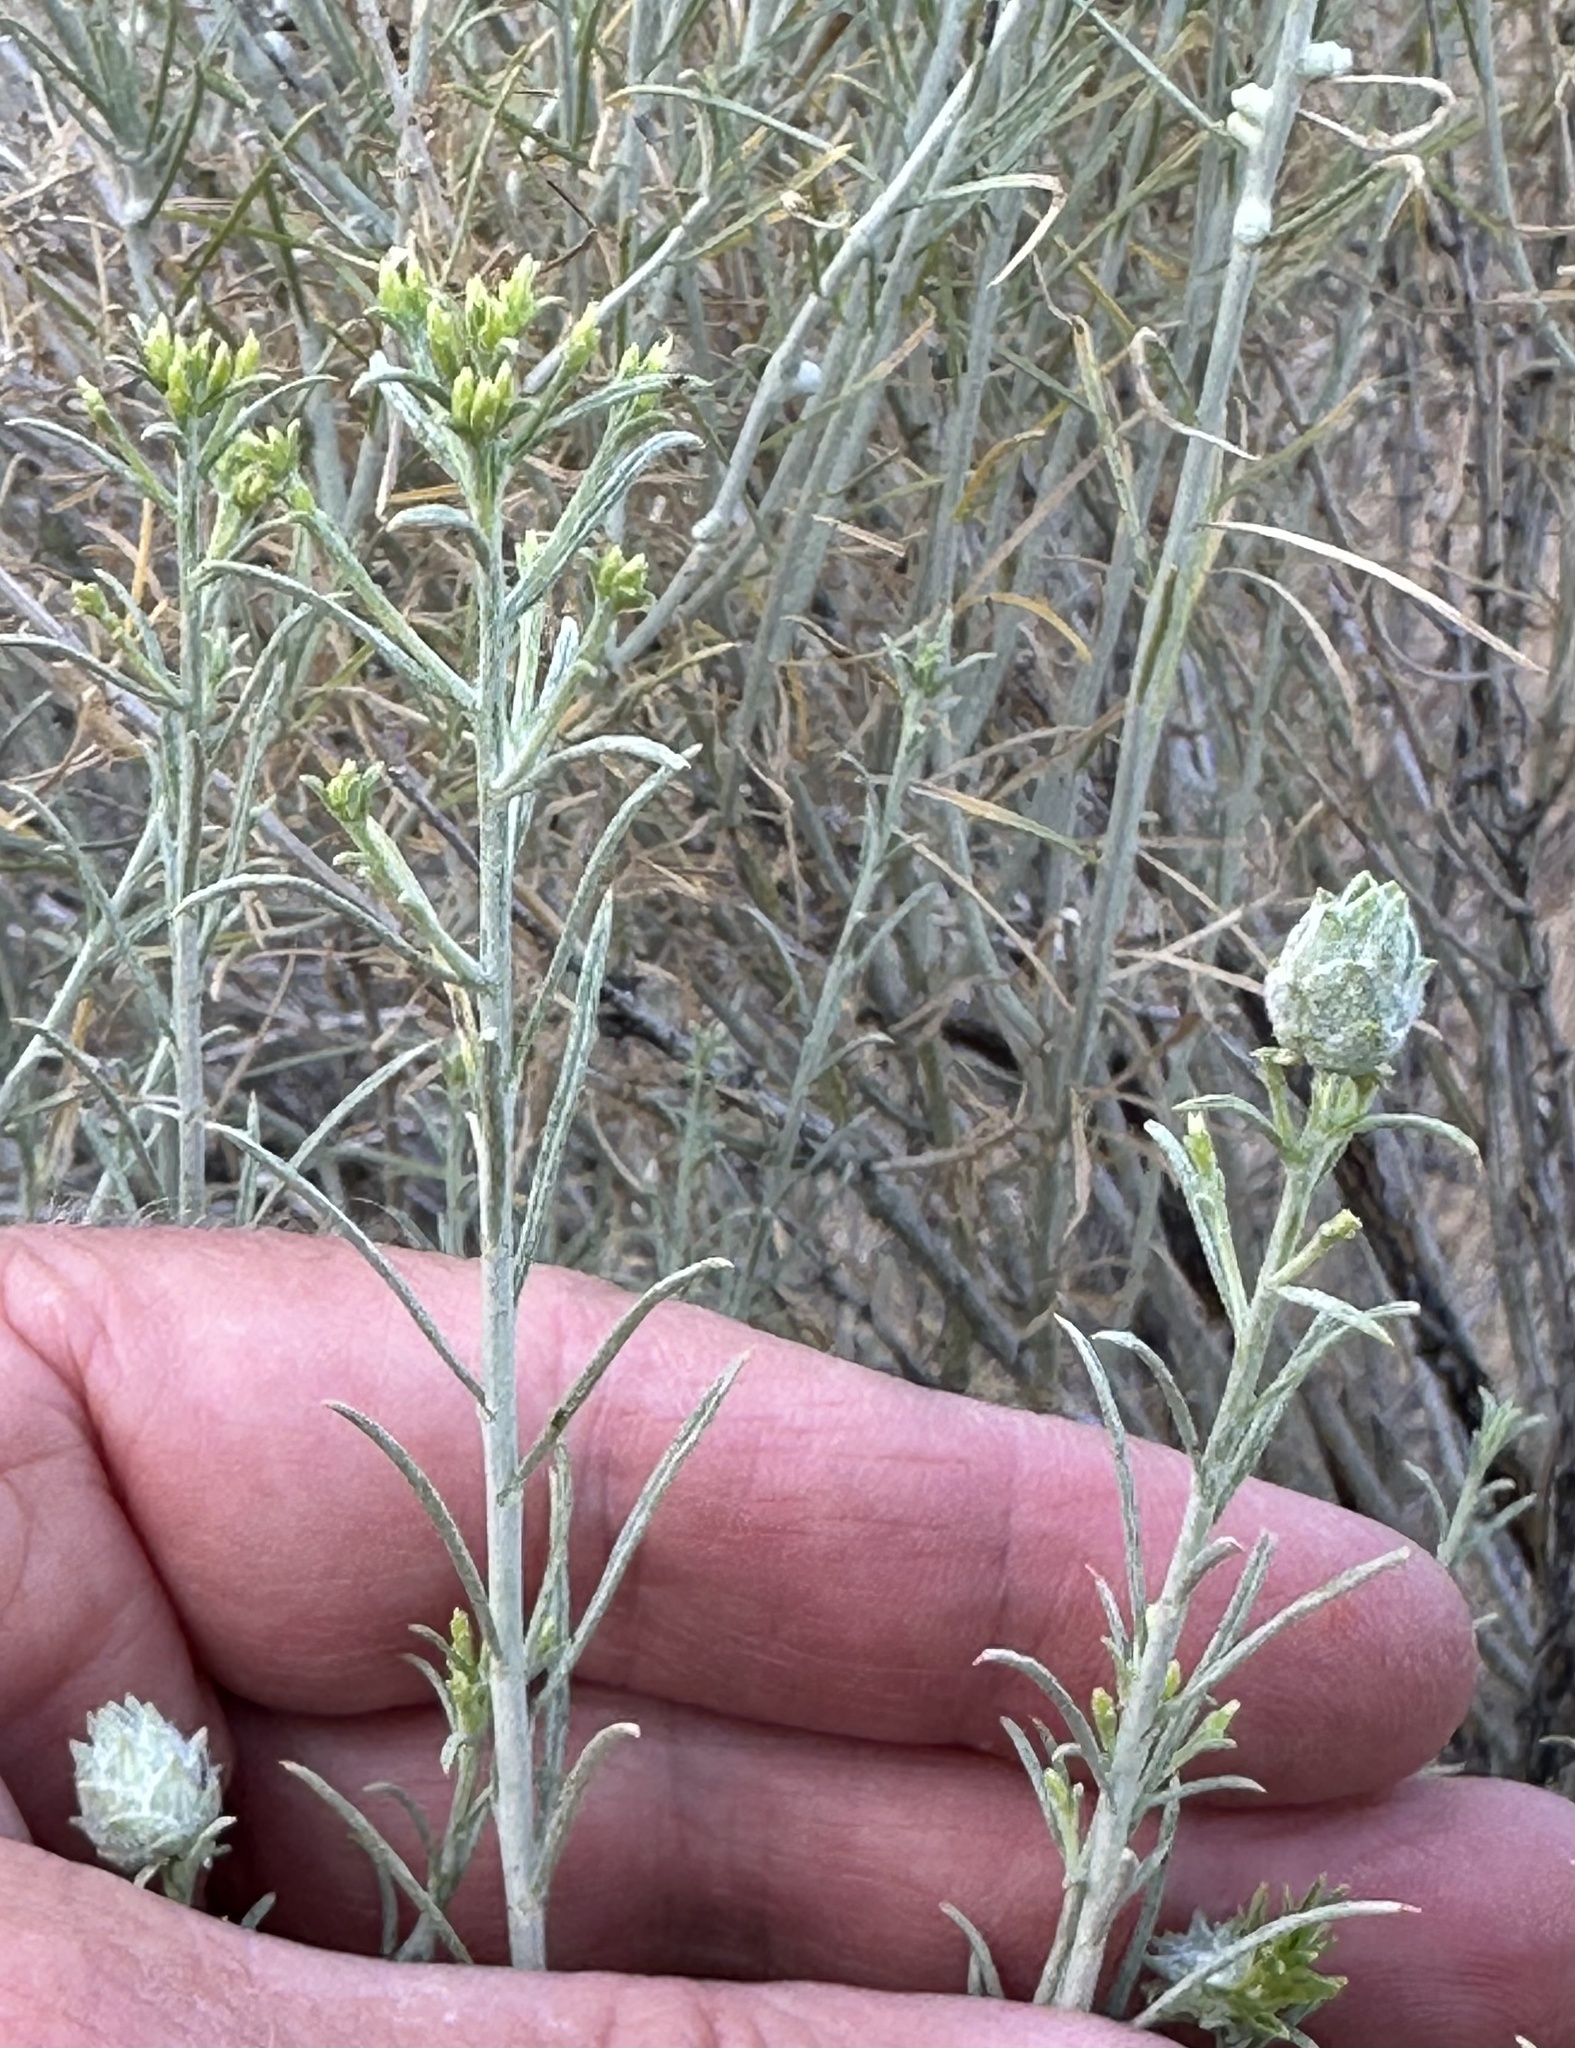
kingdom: Animalia
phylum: Arthropoda
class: Insecta
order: Diptera
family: Cecidomyiidae
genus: Rhopalomyia
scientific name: Rhopalomyia chrysothamni
